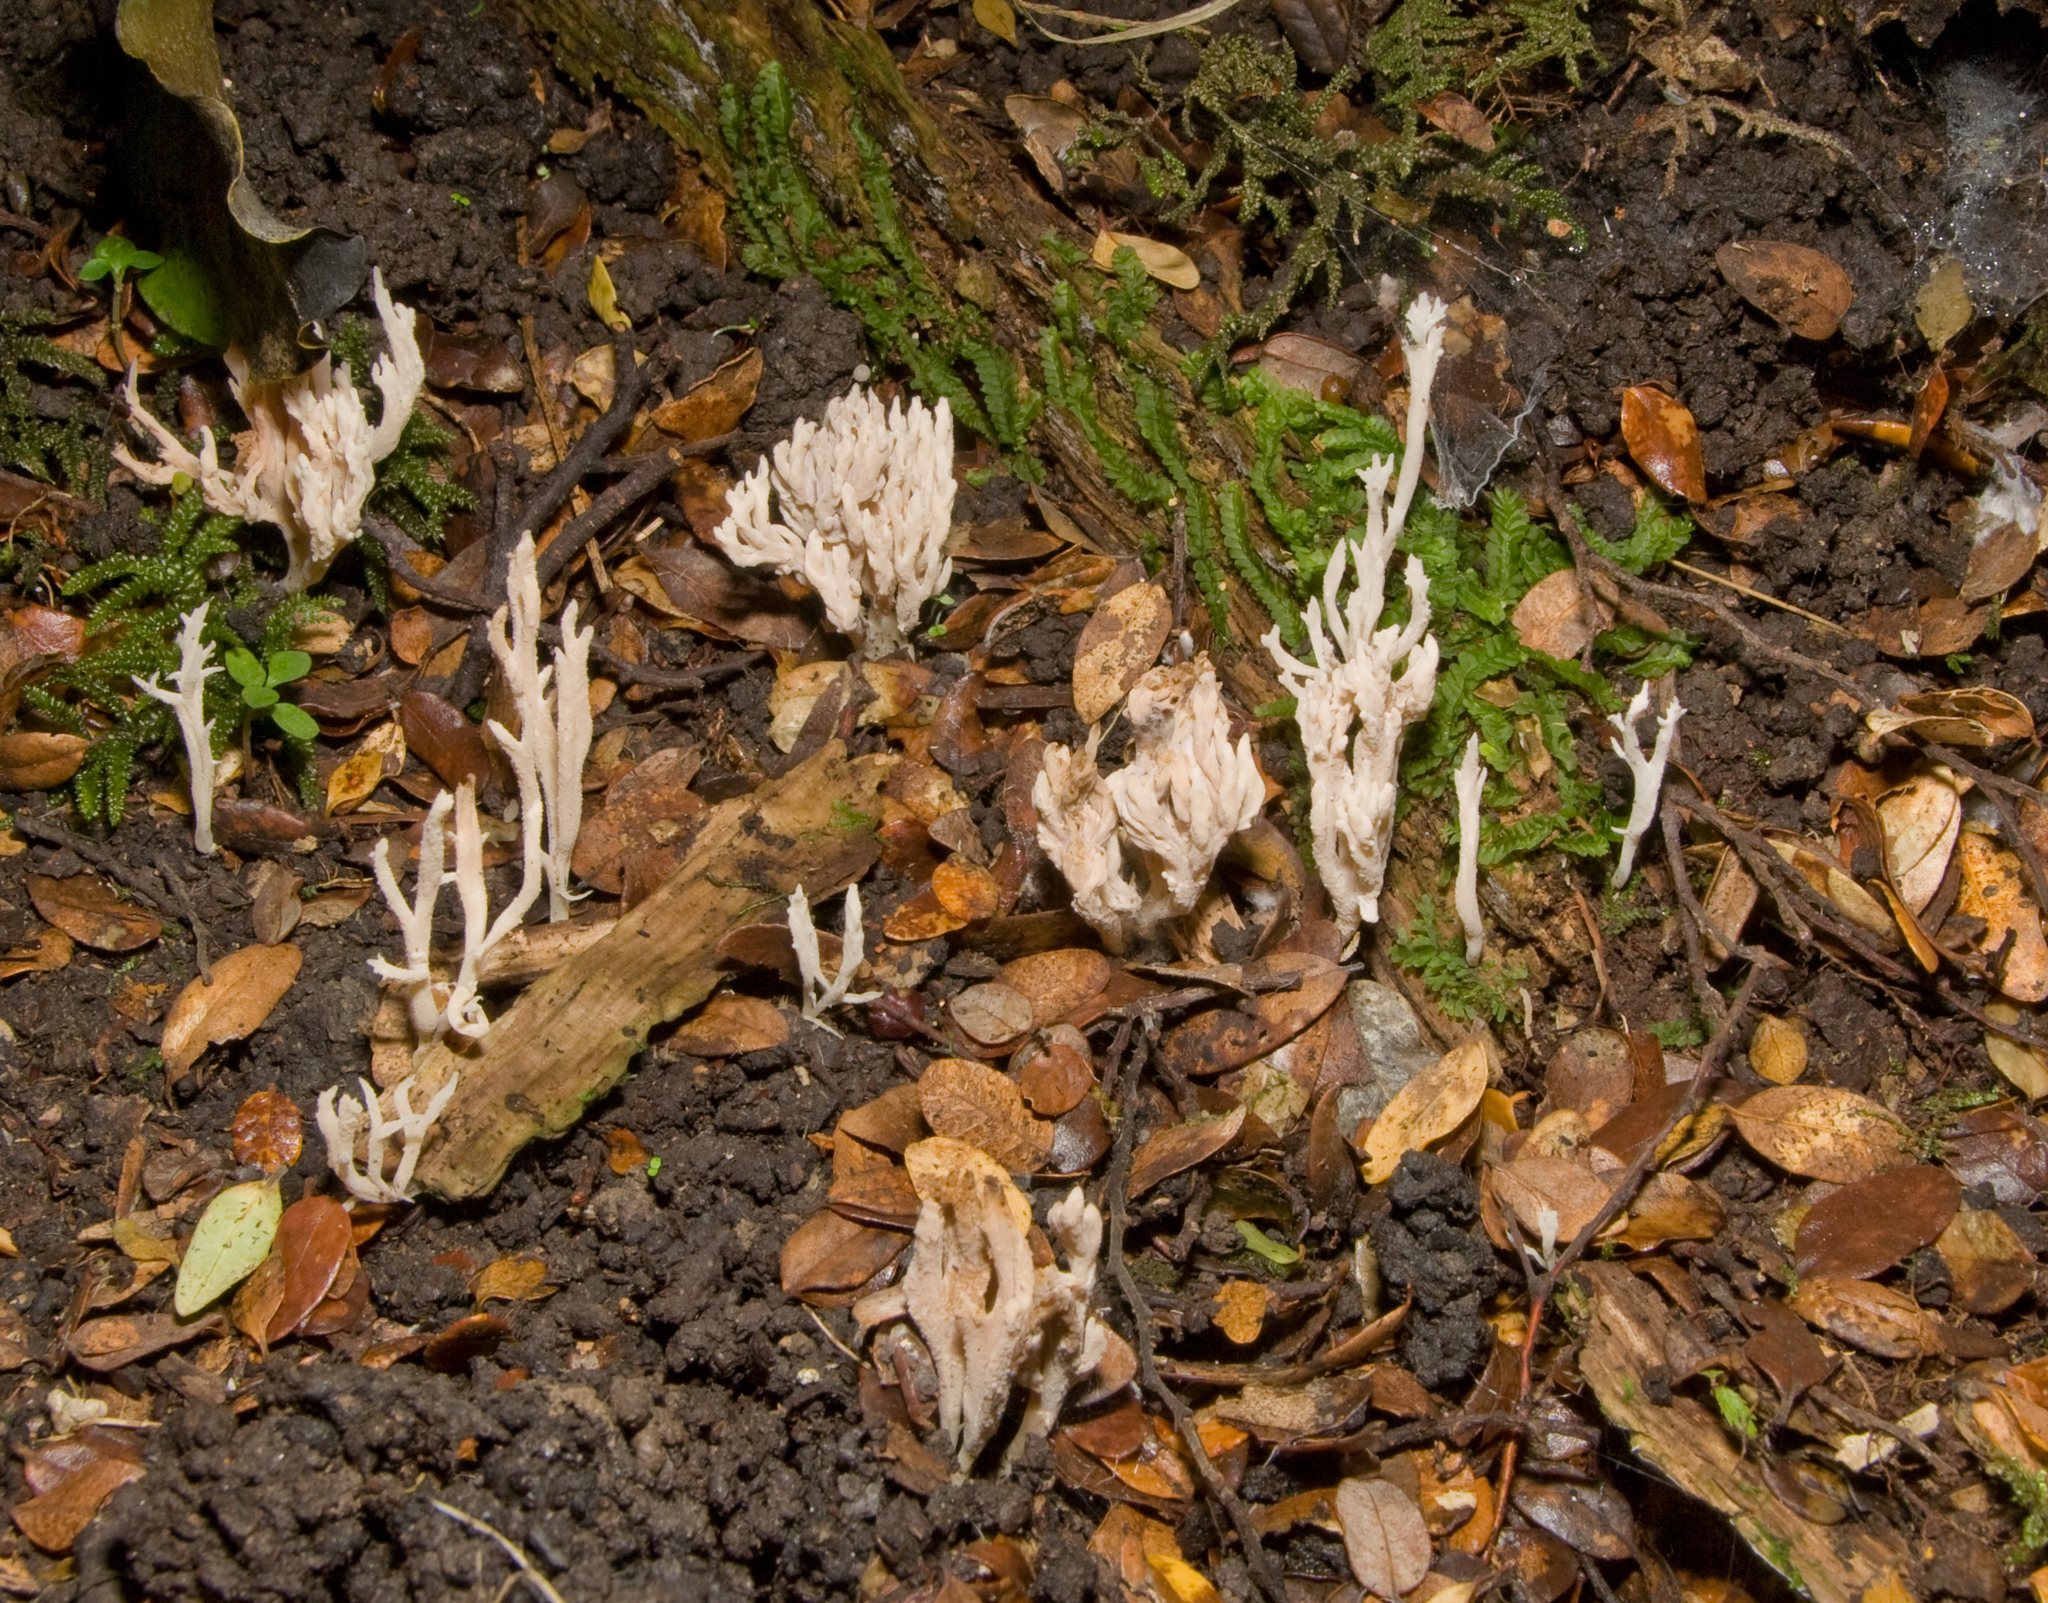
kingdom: Fungi
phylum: Basidiomycota
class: Agaricomycetes
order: Cantharellales
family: Hydnaceae
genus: Clavulina
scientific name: Clavulina
